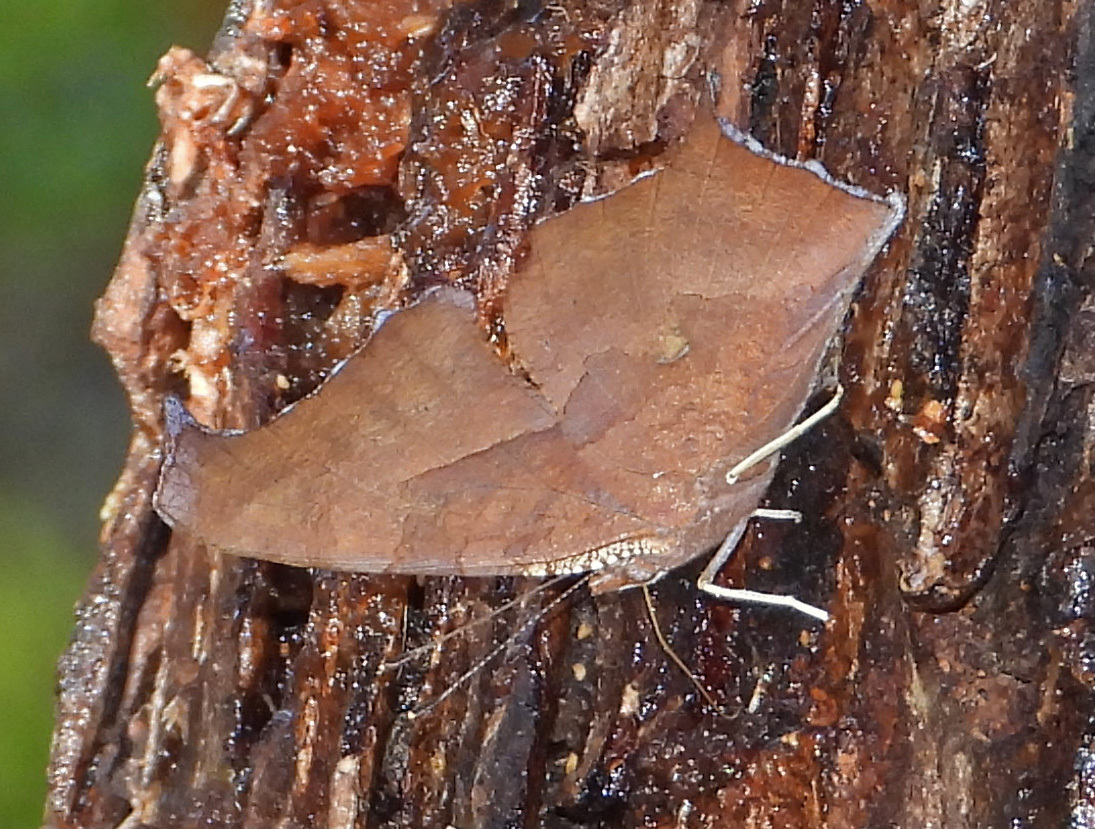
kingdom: Animalia
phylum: Arthropoda
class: Insecta
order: Lepidoptera
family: Nymphalidae
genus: Polygonia
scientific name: Polygonia interrogationis
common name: Question mark
